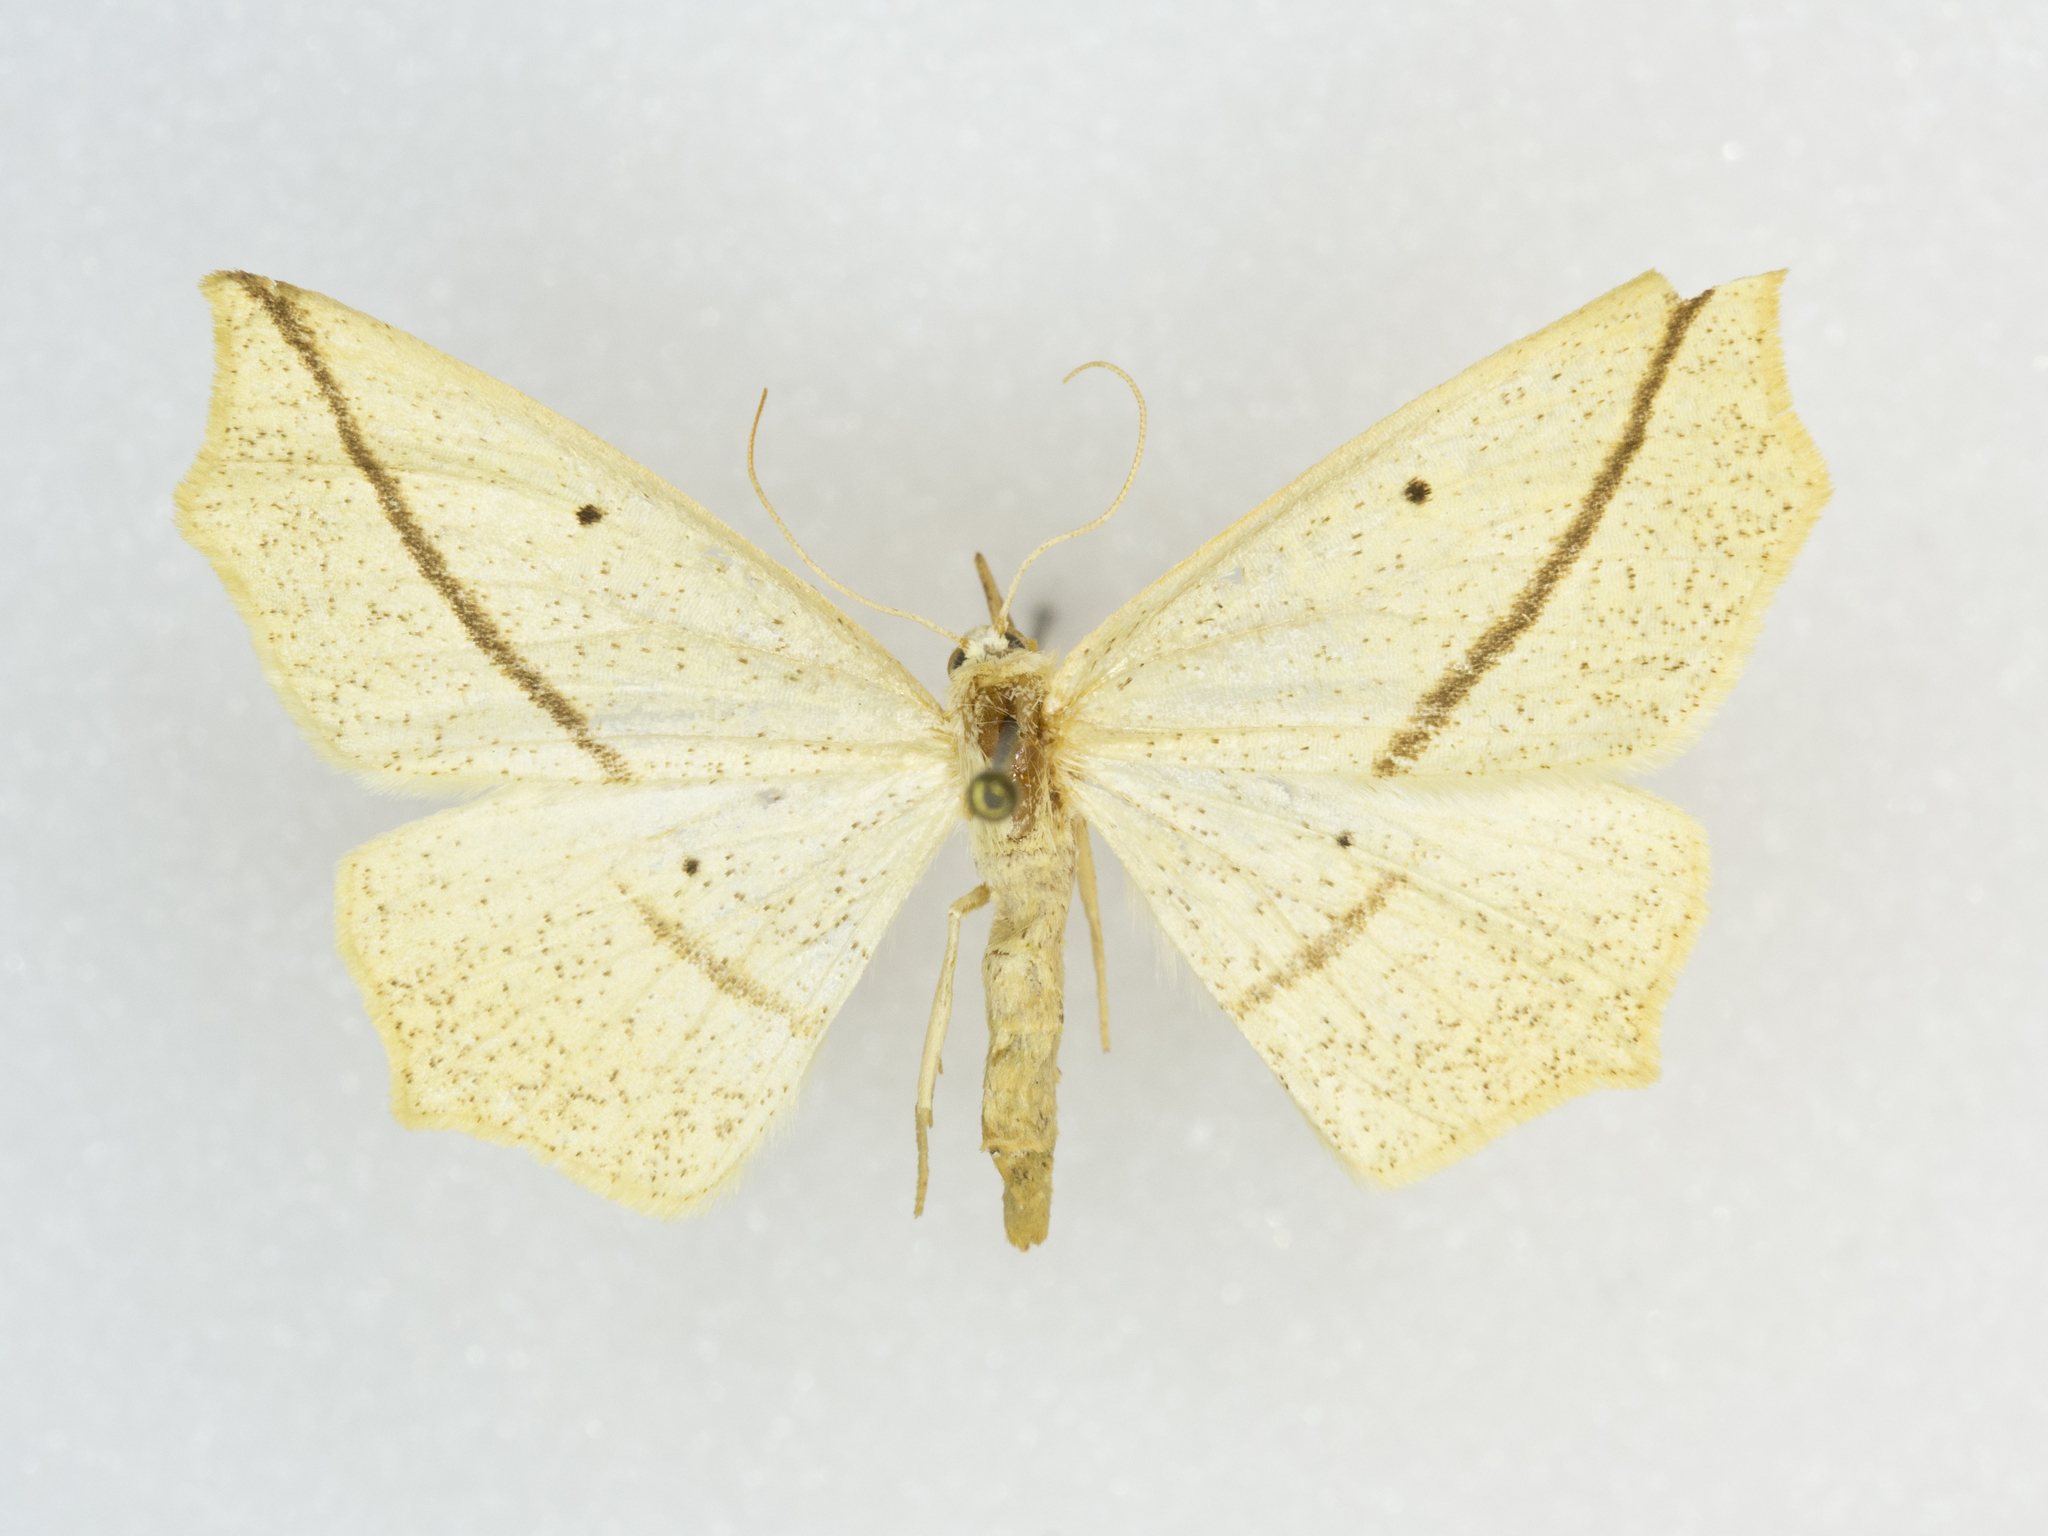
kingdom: Animalia
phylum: Arthropoda
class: Insecta
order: Lepidoptera
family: Geometridae
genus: Tetracis
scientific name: Tetracis crocallata
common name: Yellow slant-line
